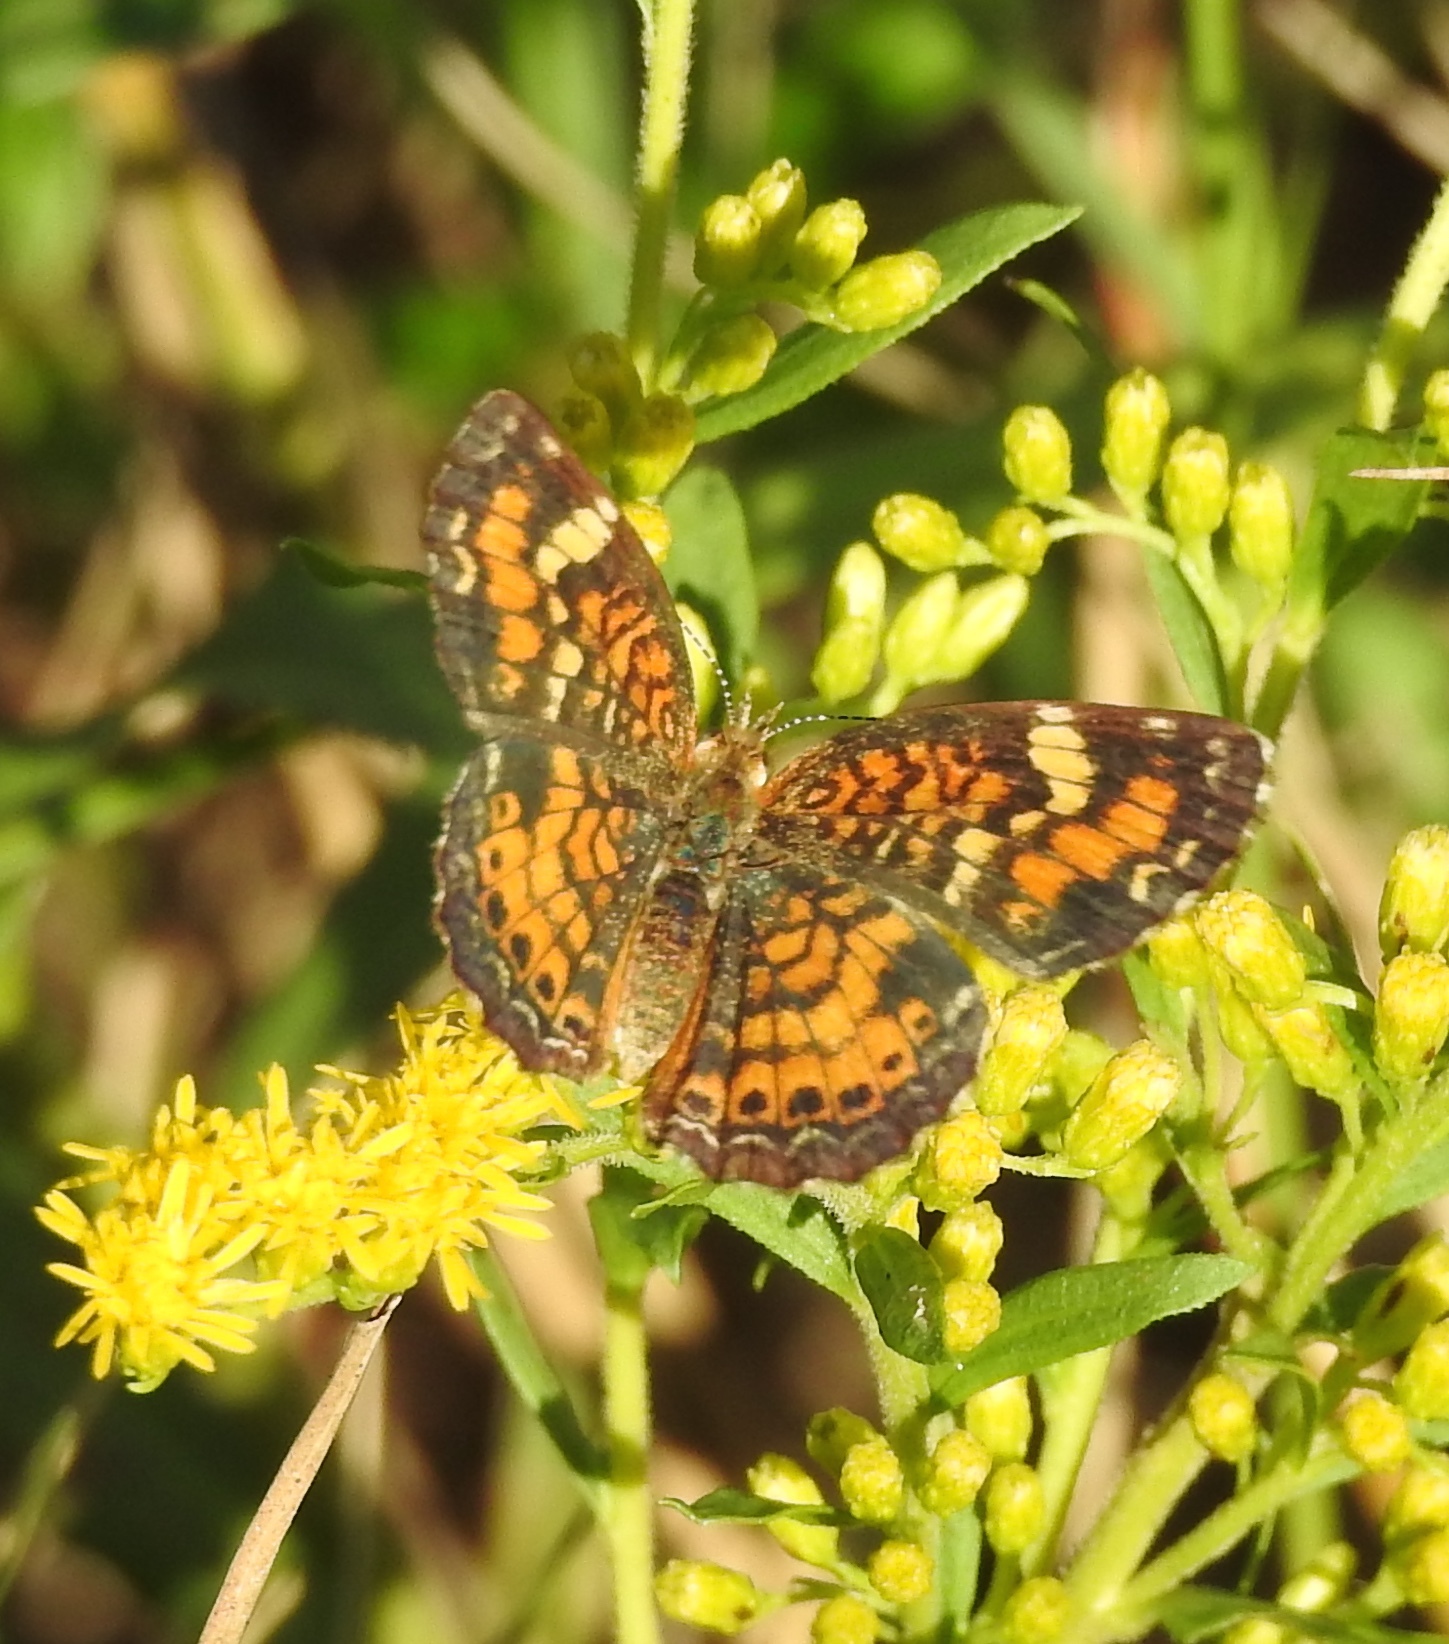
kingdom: Animalia
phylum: Arthropoda
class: Insecta
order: Lepidoptera
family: Nymphalidae
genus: Phyciodes
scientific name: Phyciodes phaon
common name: Phaon crescent
